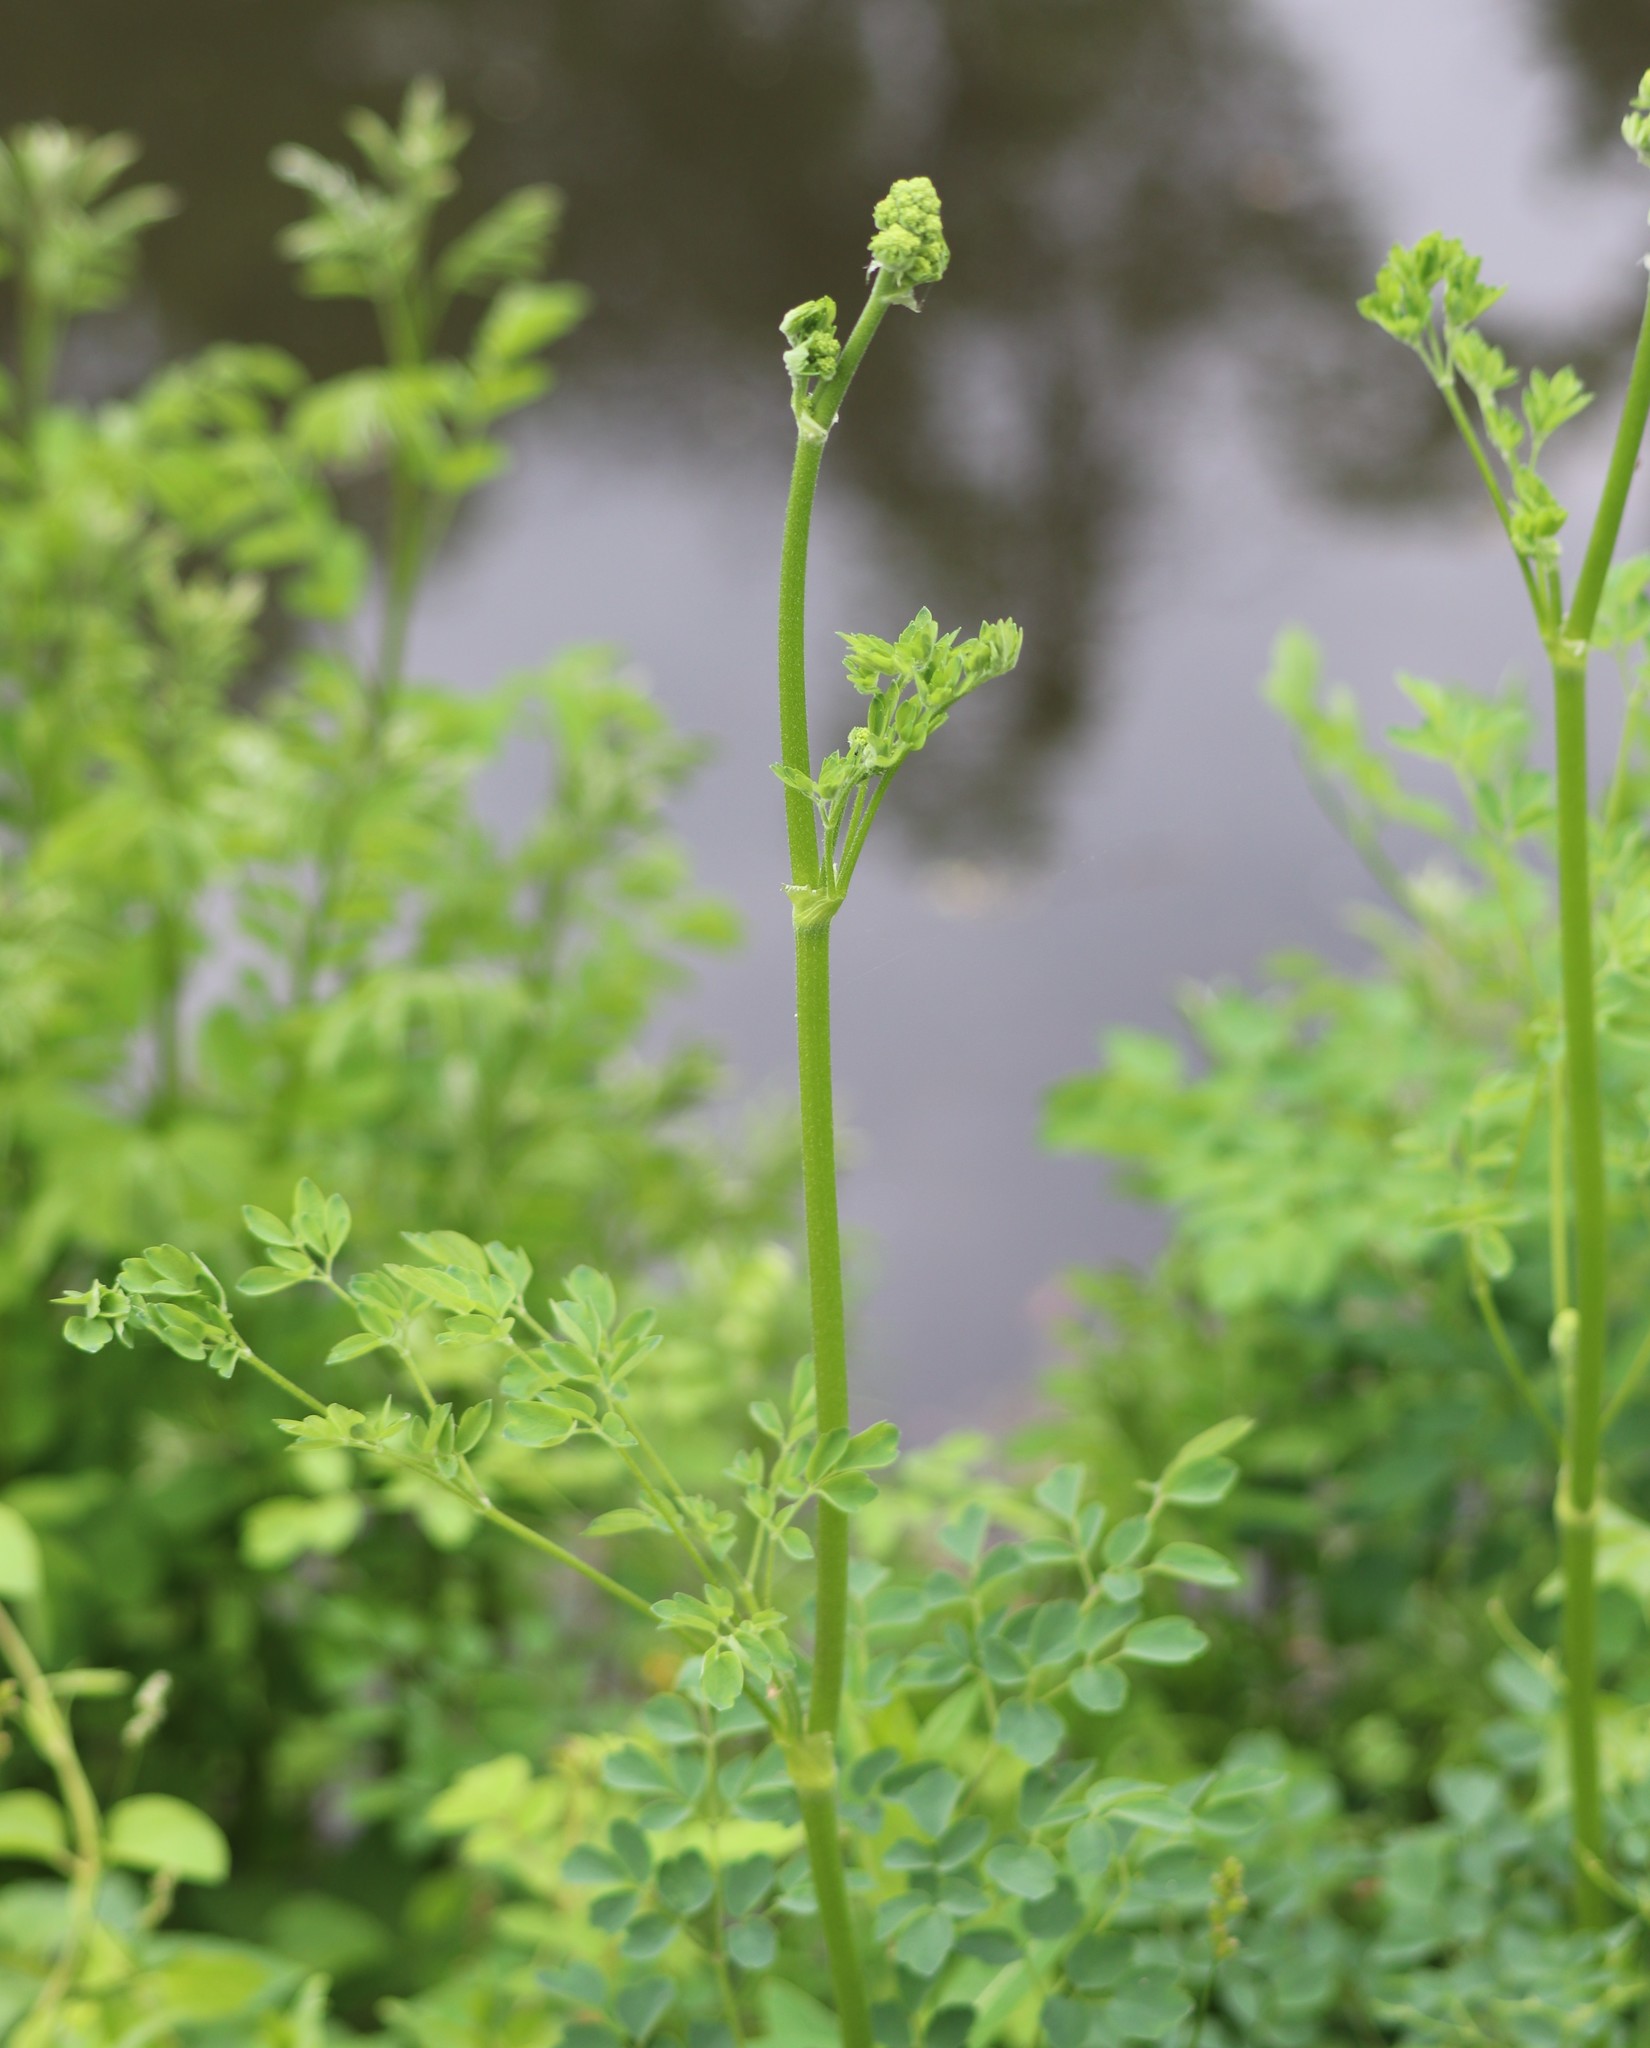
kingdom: Plantae
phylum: Tracheophyta
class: Magnoliopsida
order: Ranunculales
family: Ranunculaceae
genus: Thalictrum
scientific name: Thalictrum pubescens
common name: King-of-the-meadow
